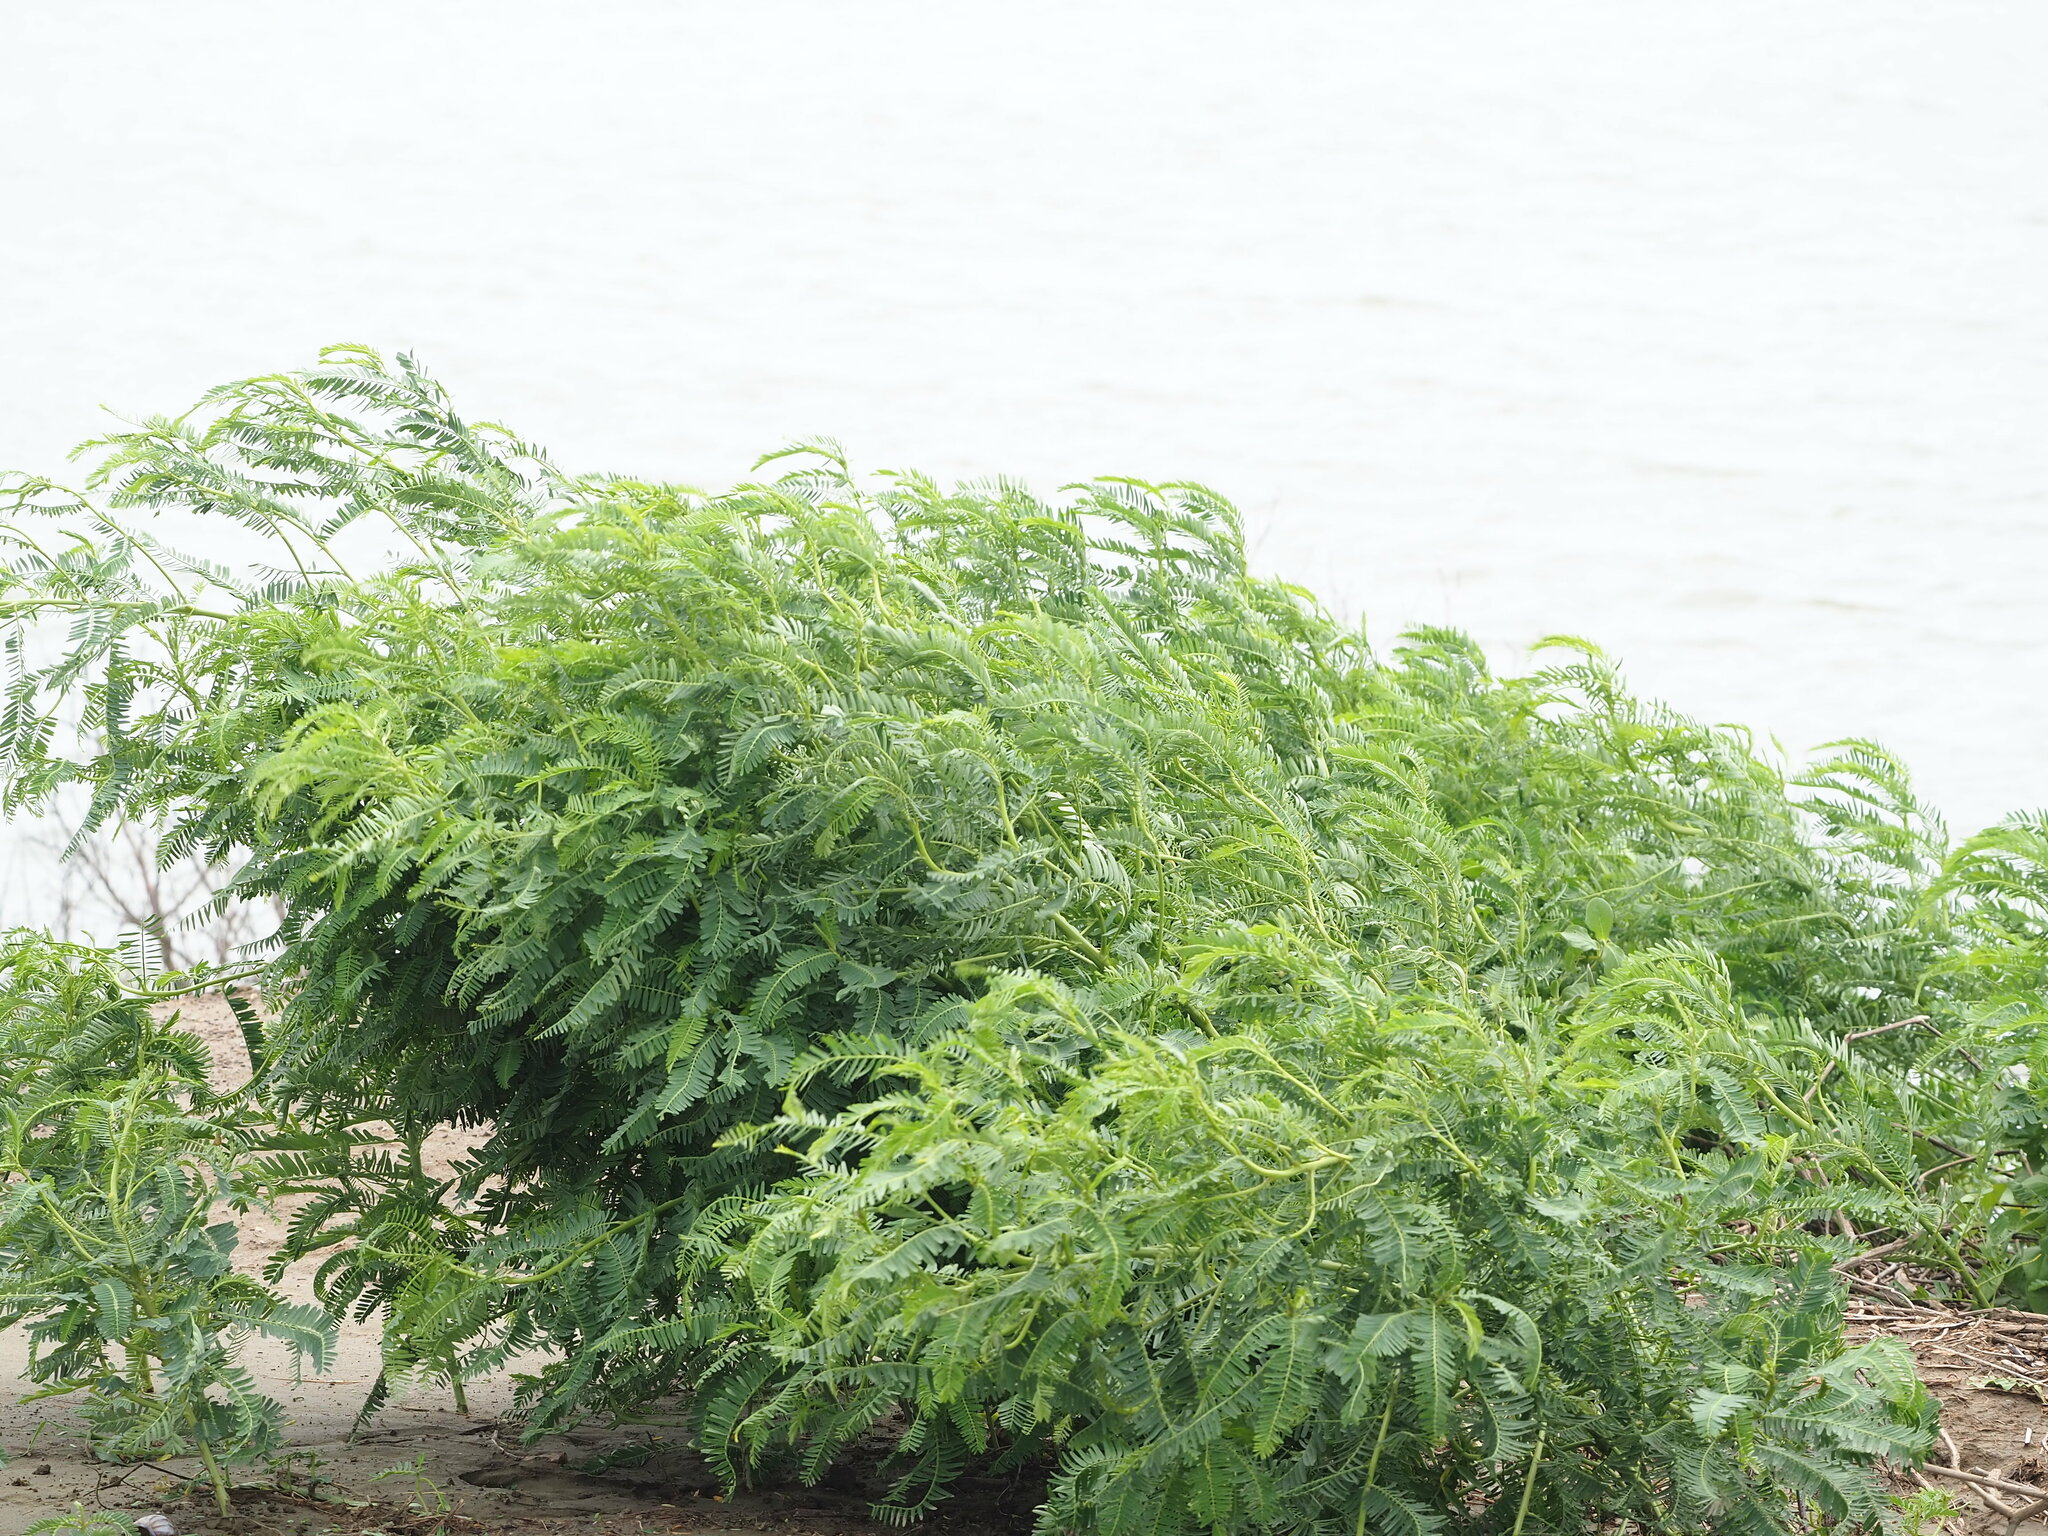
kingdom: Plantae
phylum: Tracheophyta
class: Magnoliopsida
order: Fabales
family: Fabaceae
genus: Sesbania
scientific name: Sesbania cannabina
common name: Canicha
